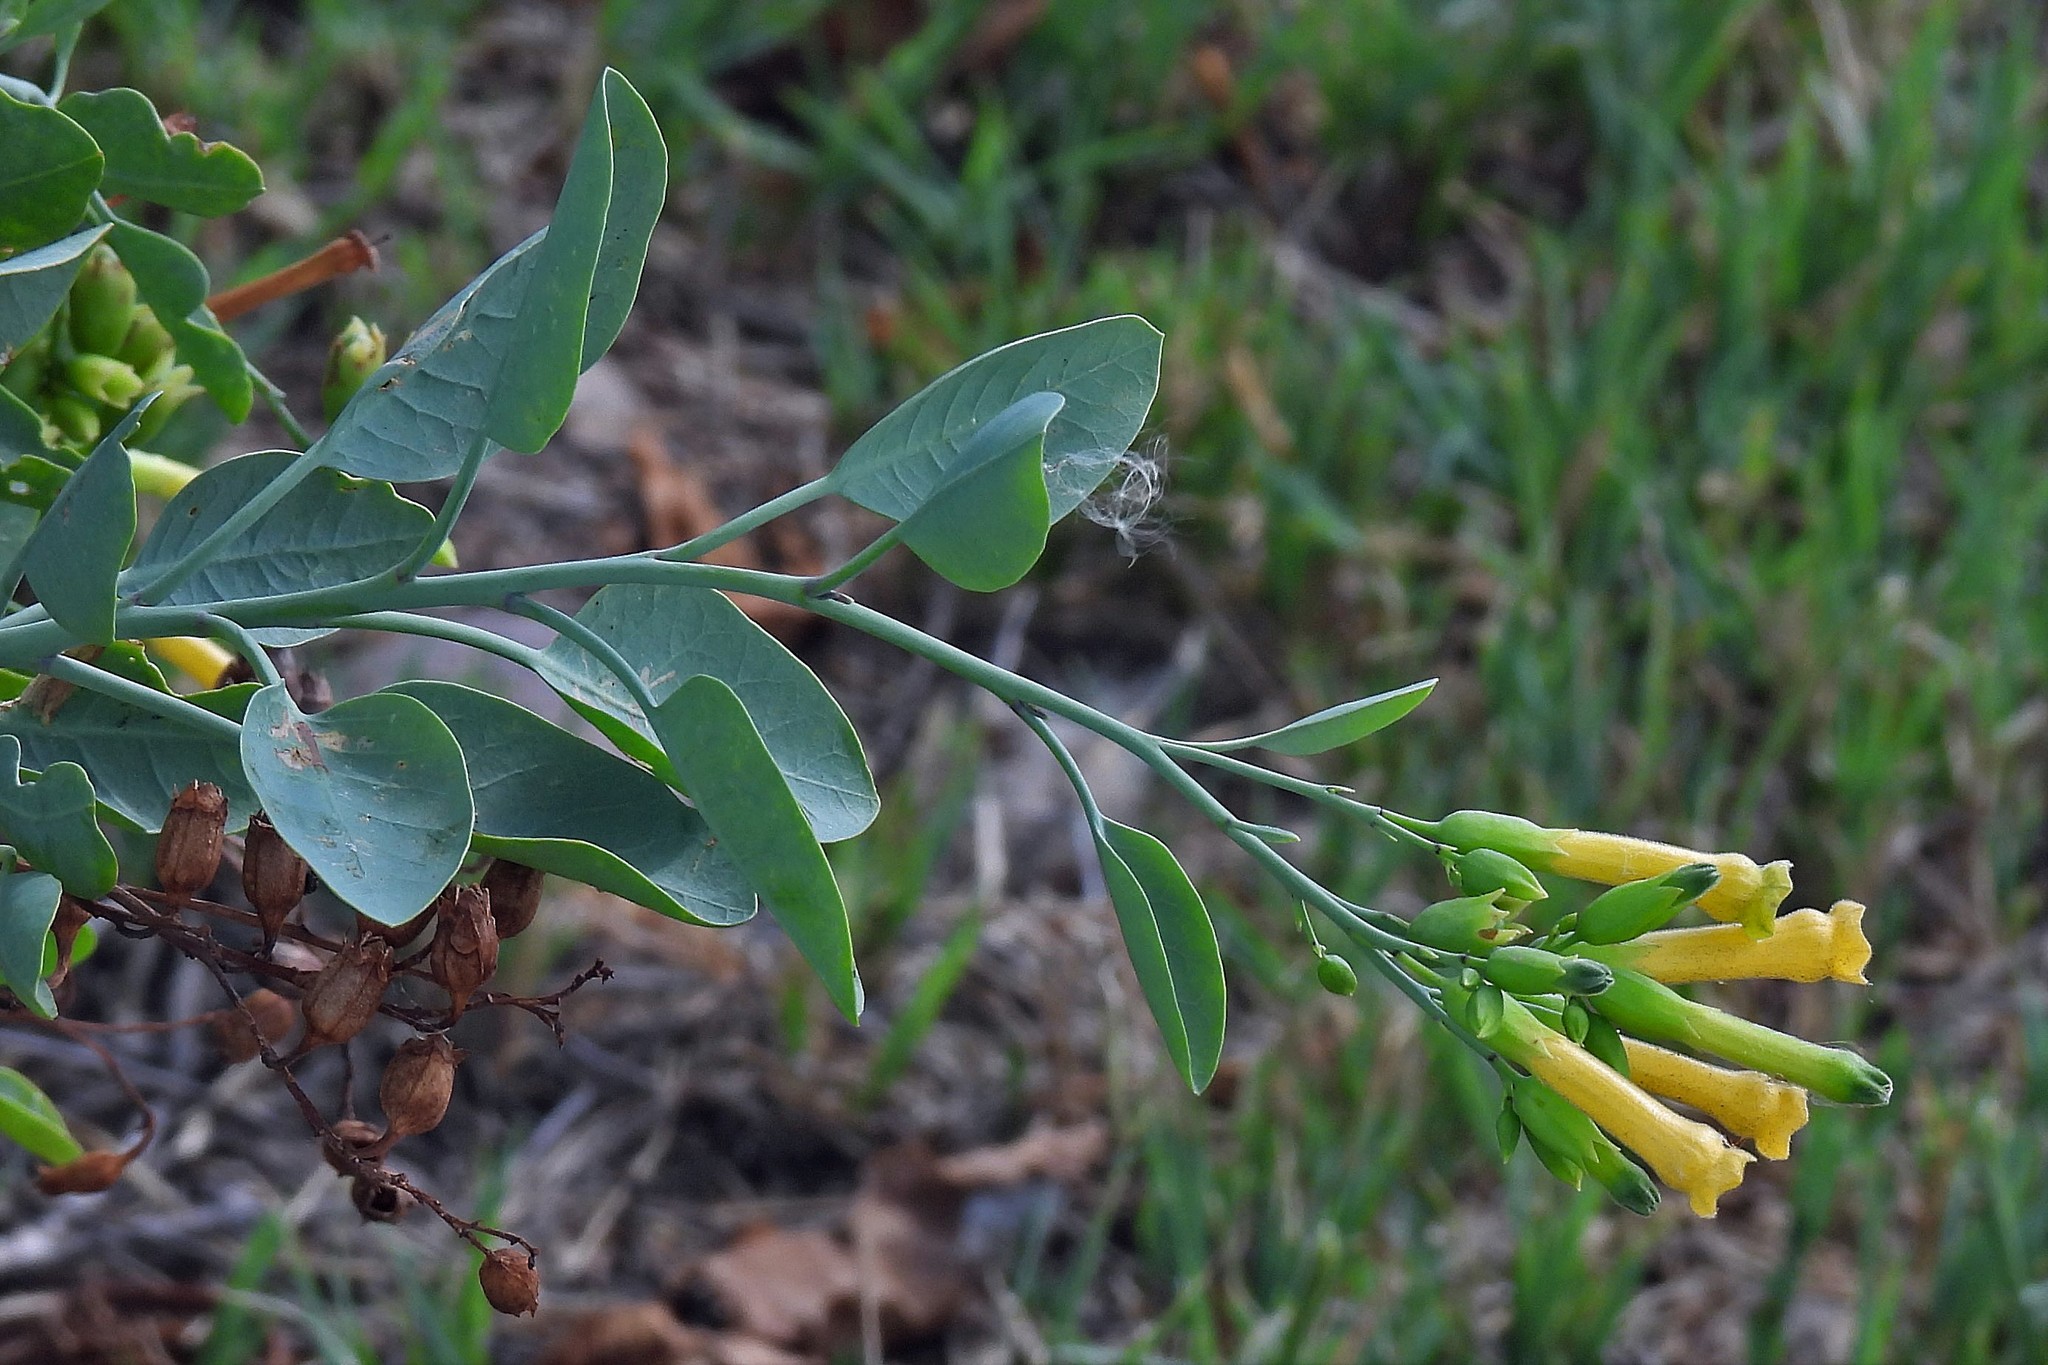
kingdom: Plantae
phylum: Tracheophyta
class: Magnoliopsida
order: Solanales
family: Solanaceae
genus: Nicotiana
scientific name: Nicotiana glauca
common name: Tree tobacco
